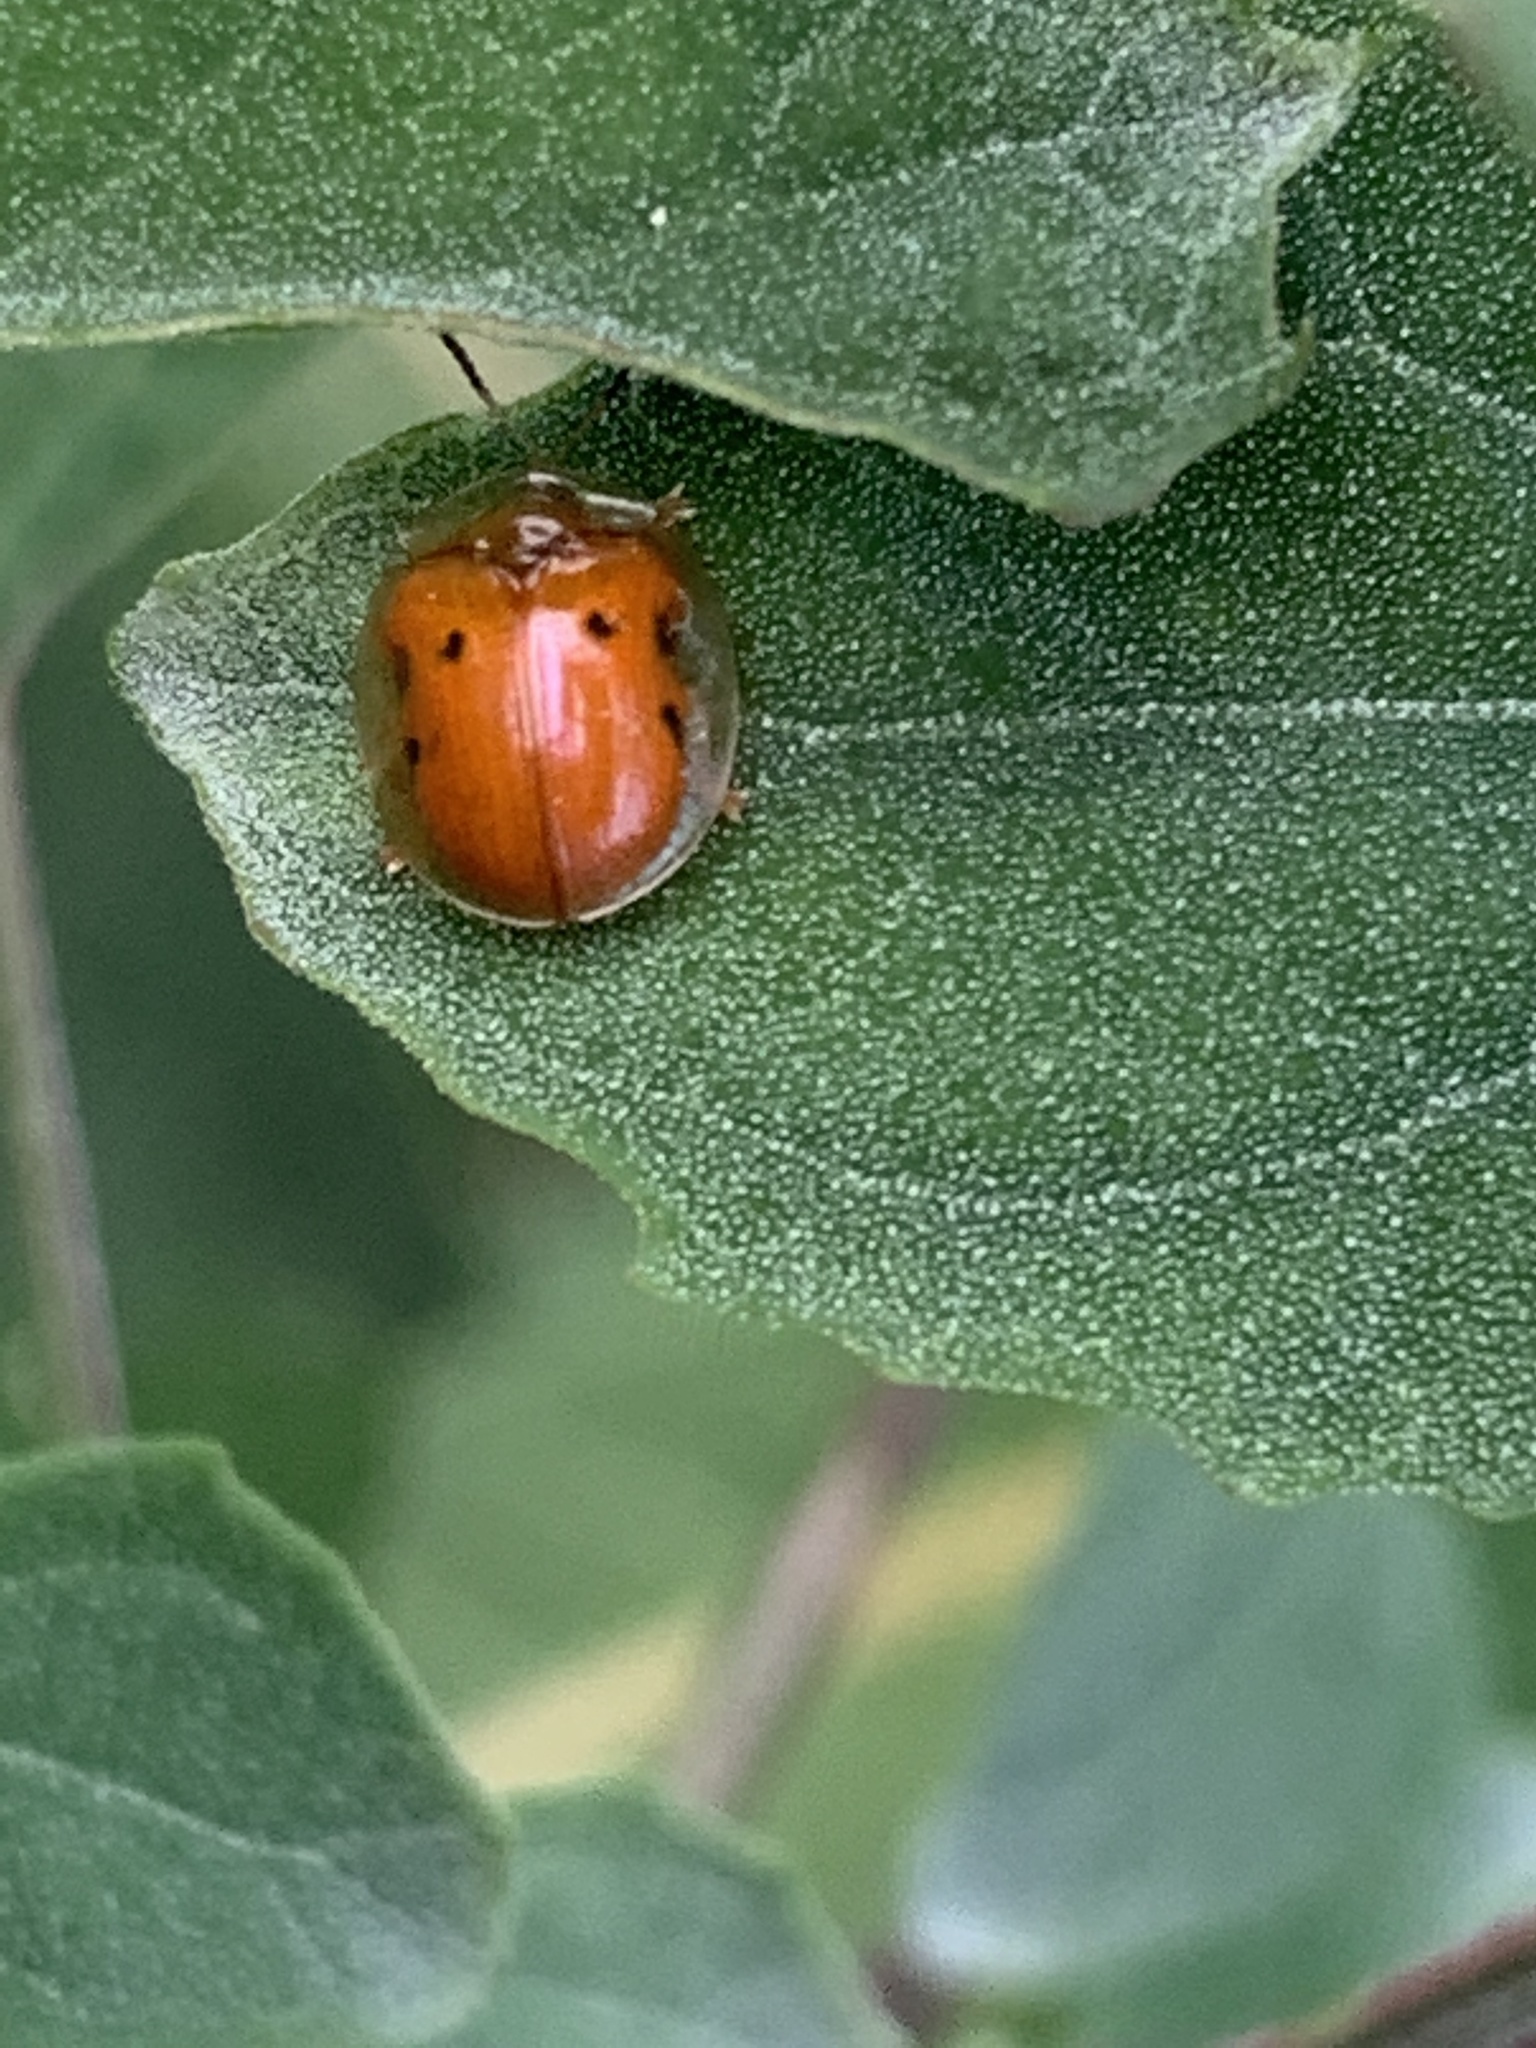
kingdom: Animalia
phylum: Arthropoda
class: Insecta
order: Coleoptera
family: Chrysomelidae
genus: Charidotella
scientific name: Charidotella sexpunctata
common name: Golden tortoise beetle
